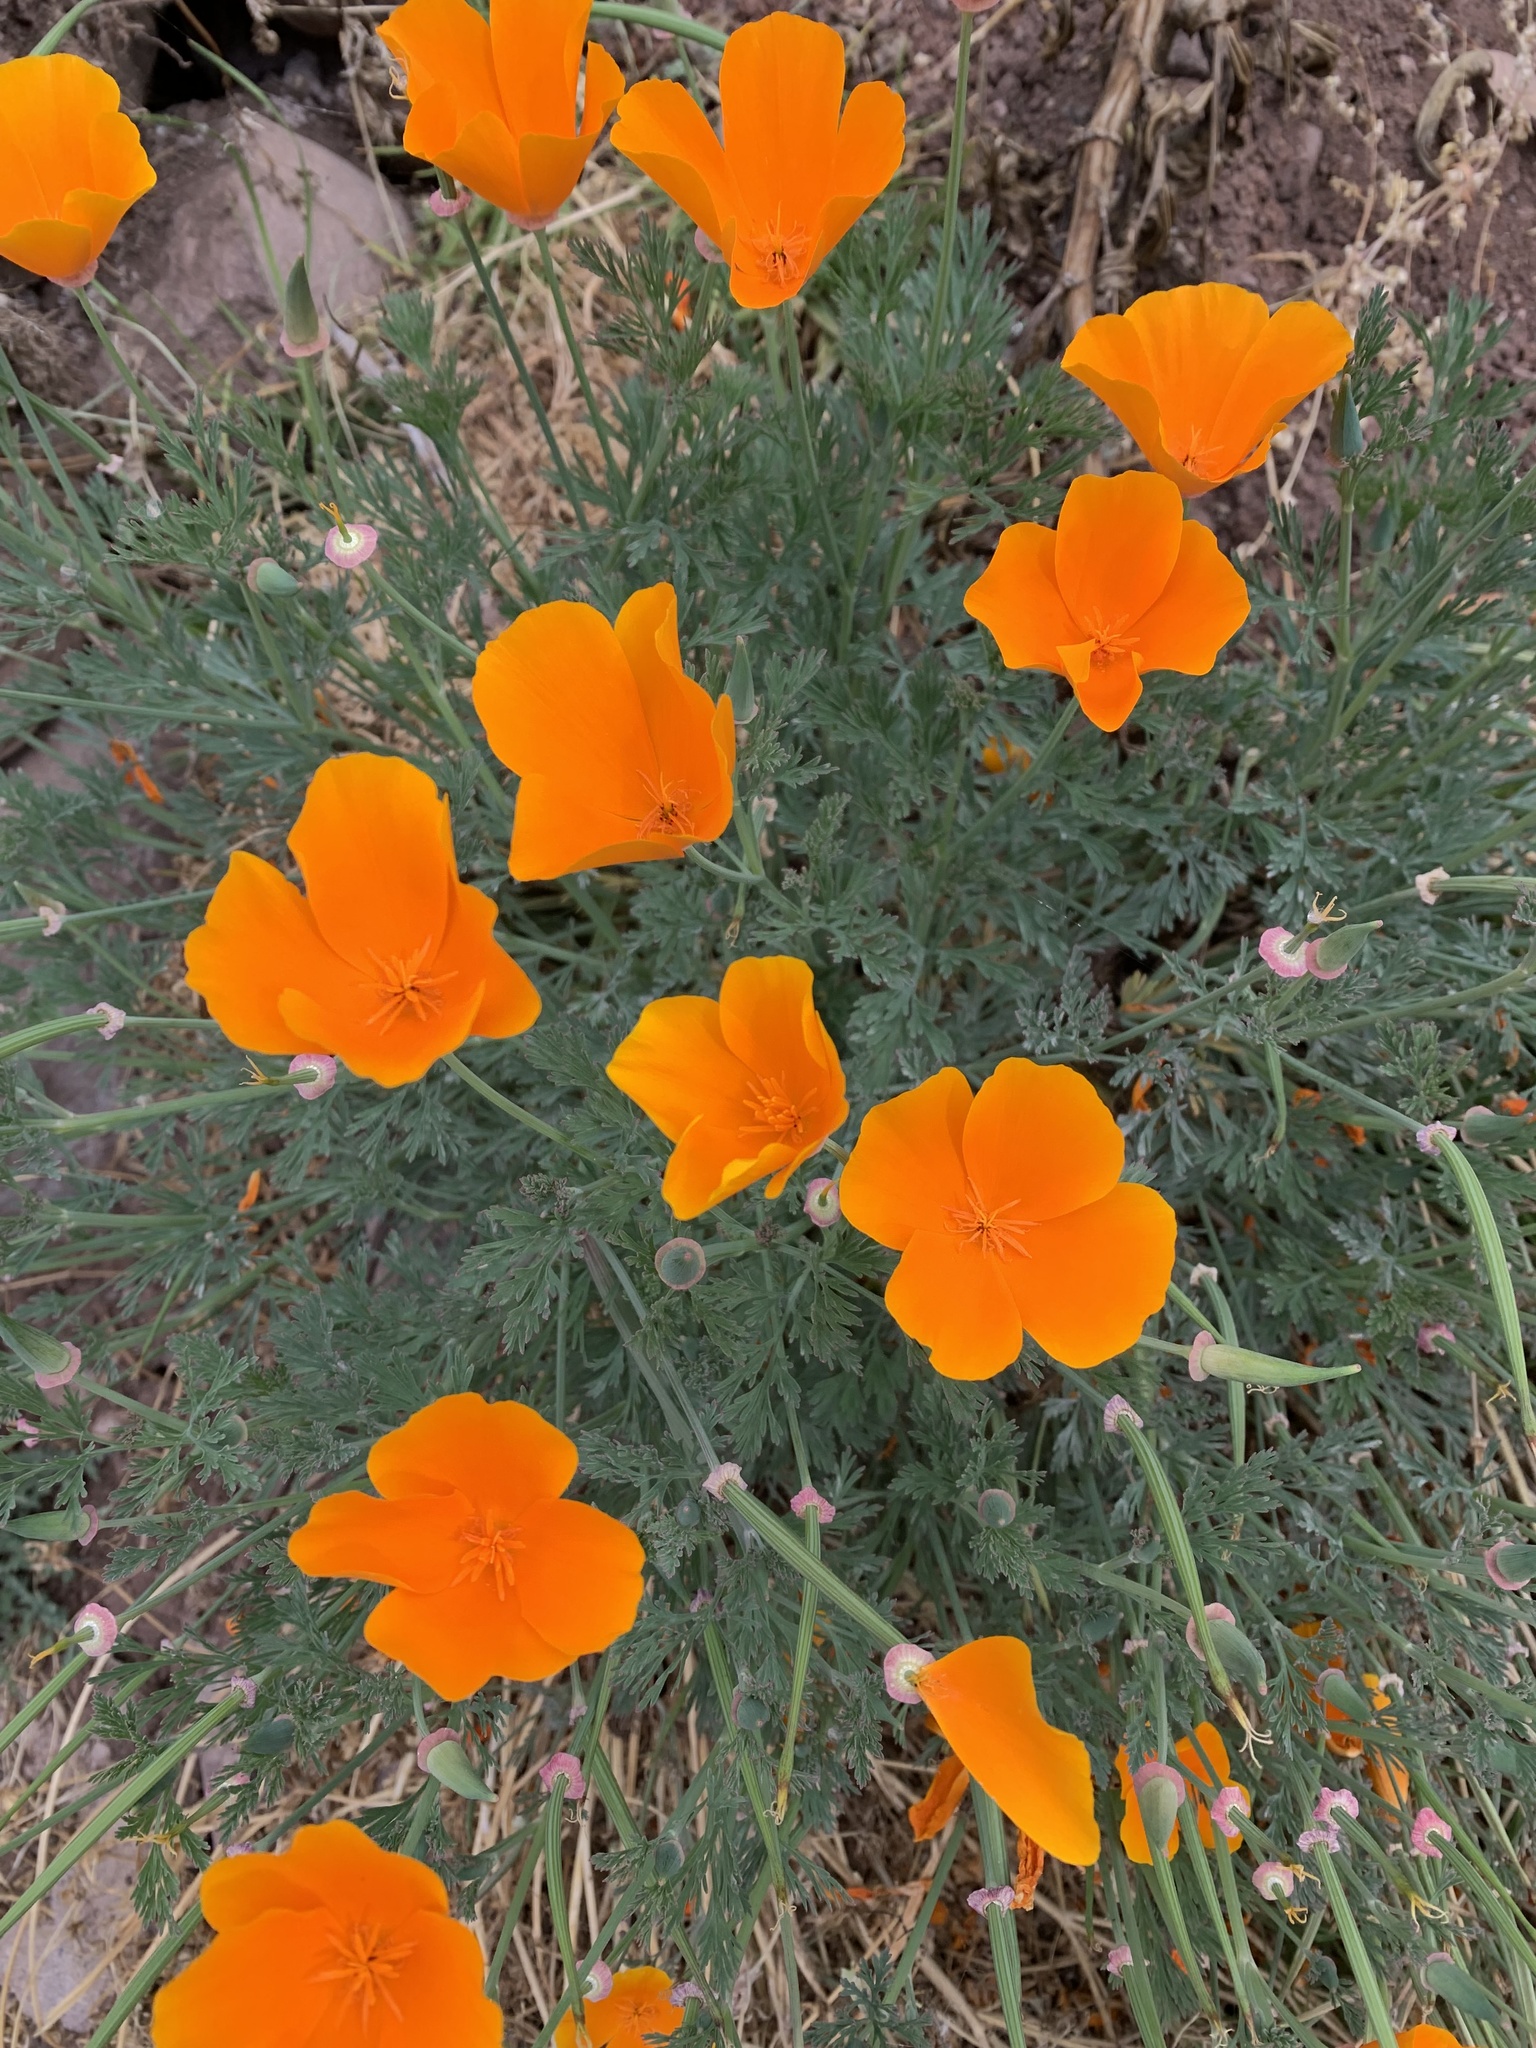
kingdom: Plantae
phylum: Tracheophyta
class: Magnoliopsida
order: Ranunculales
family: Papaveraceae
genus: Eschscholzia
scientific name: Eschscholzia californica
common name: California poppy
